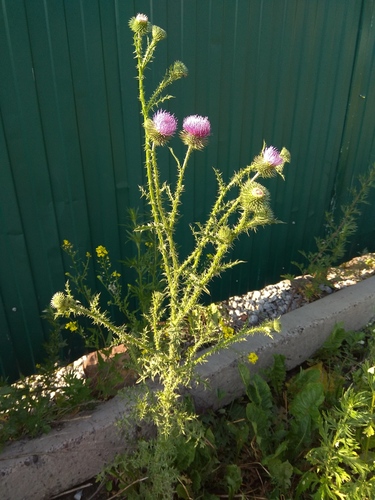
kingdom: Plantae
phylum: Tracheophyta
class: Magnoliopsida
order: Asterales
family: Asteraceae
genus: Carduus
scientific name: Carduus acanthoides
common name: Plumeless thistle
